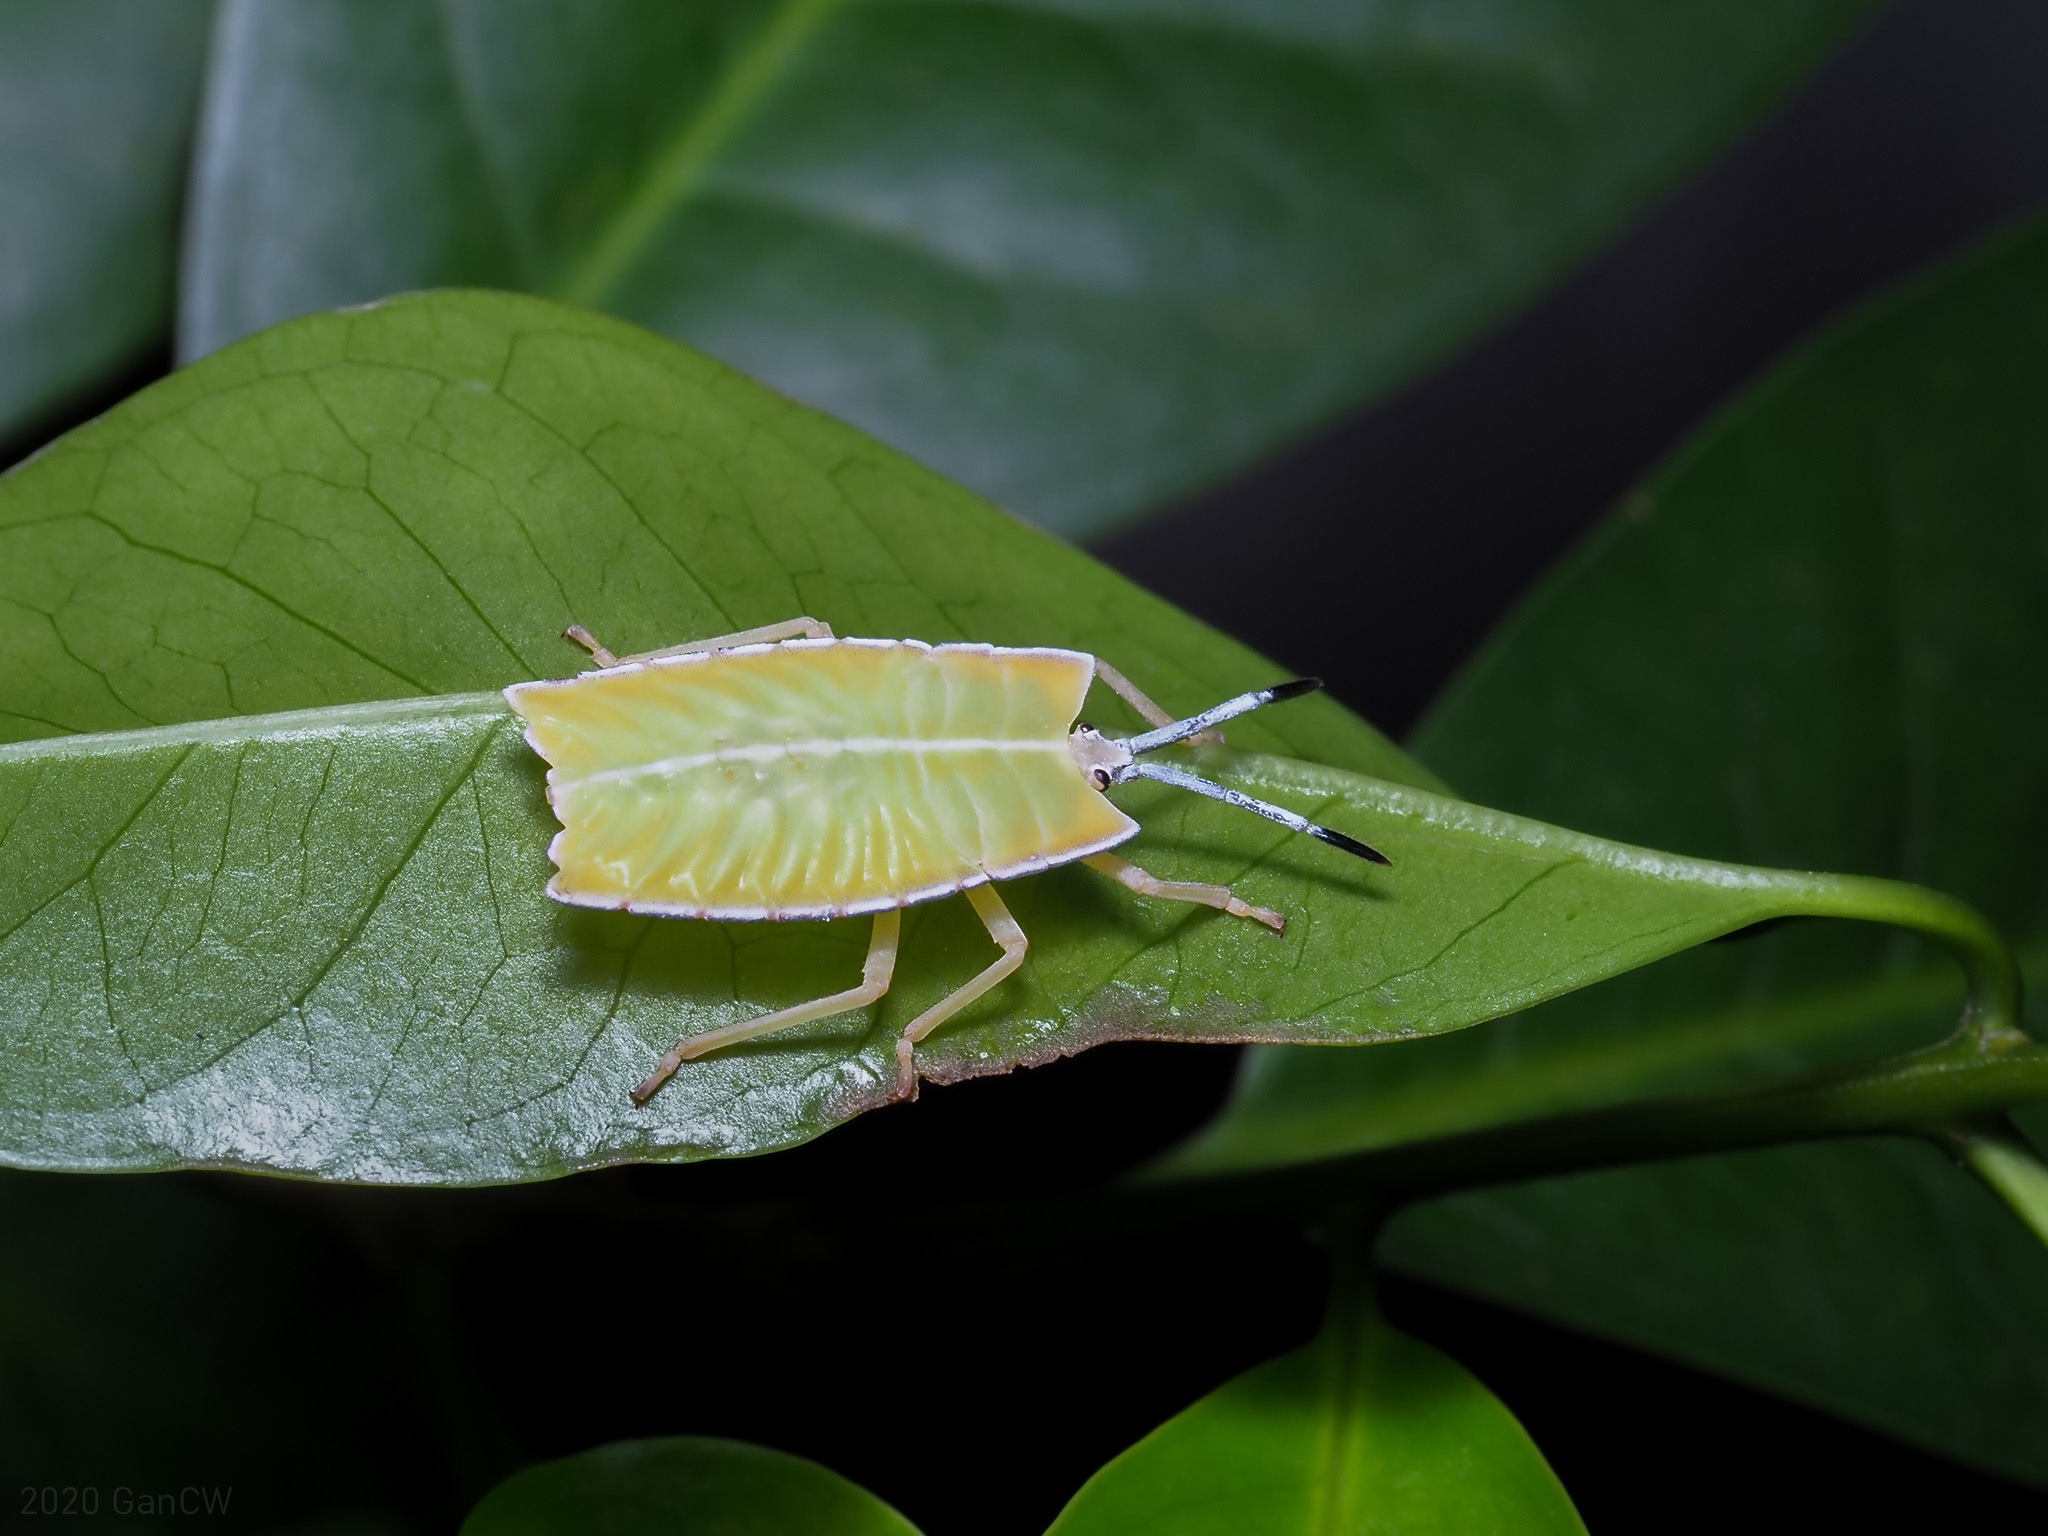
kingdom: Animalia
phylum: Arthropoda
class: Insecta
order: Hemiptera
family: Tessaratomidae
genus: Pycanum
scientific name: Pycanum alternatum
